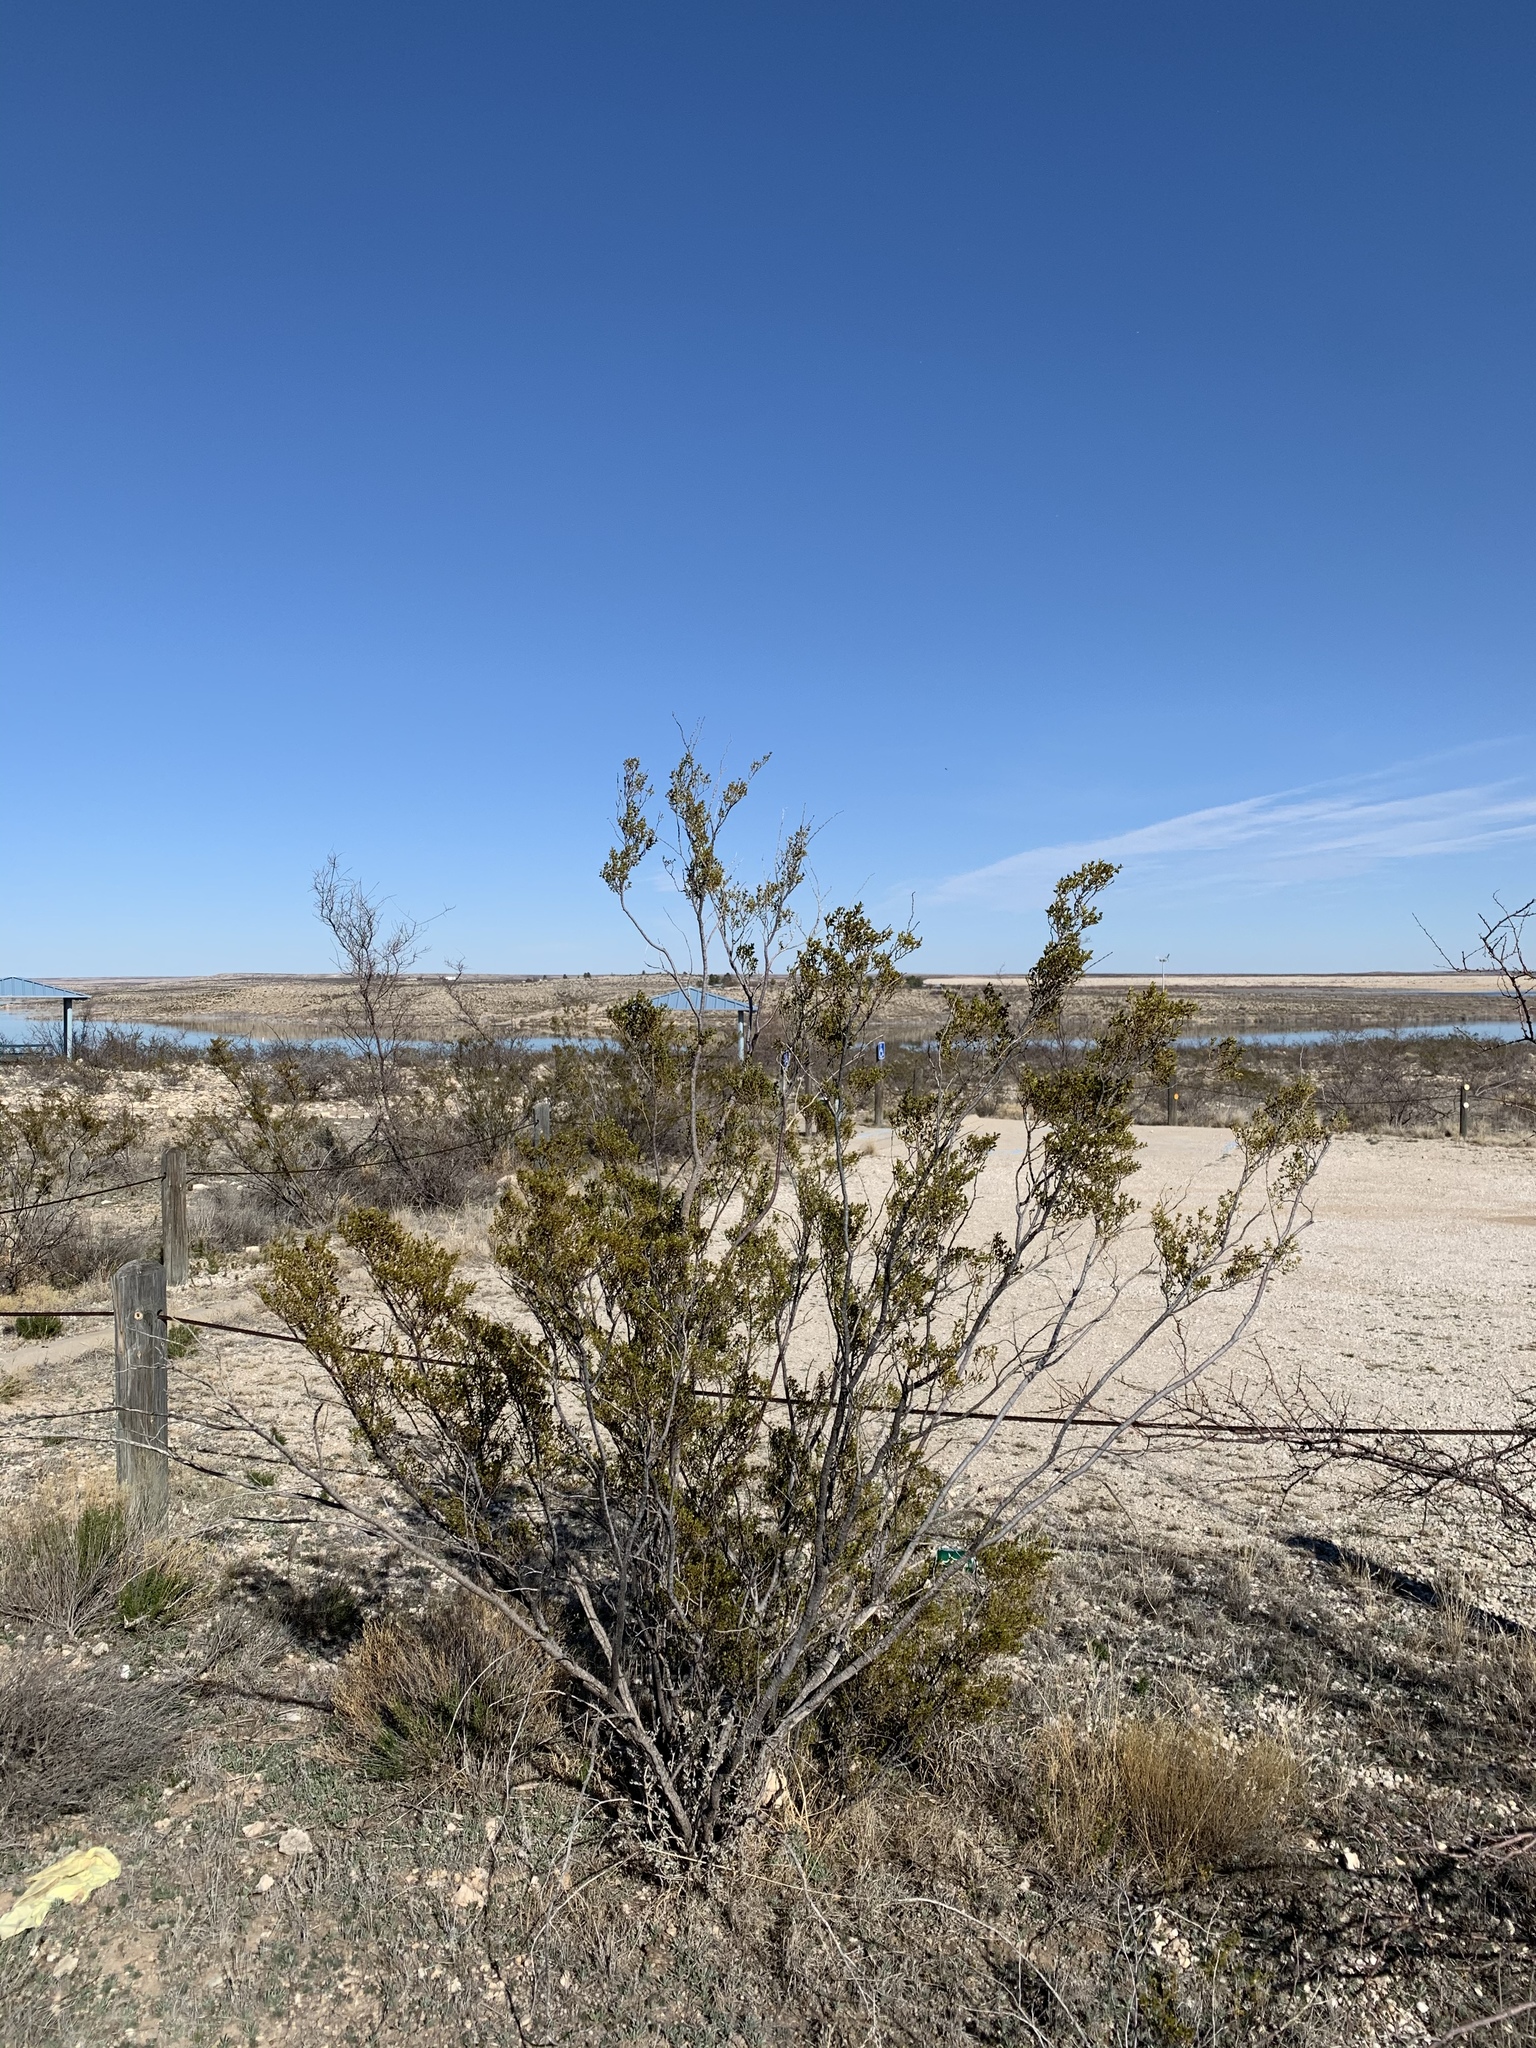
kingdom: Plantae
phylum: Tracheophyta
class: Magnoliopsida
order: Zygophyllales
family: Zygophyllaceae
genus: Larrea
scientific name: Larrea tridentata
